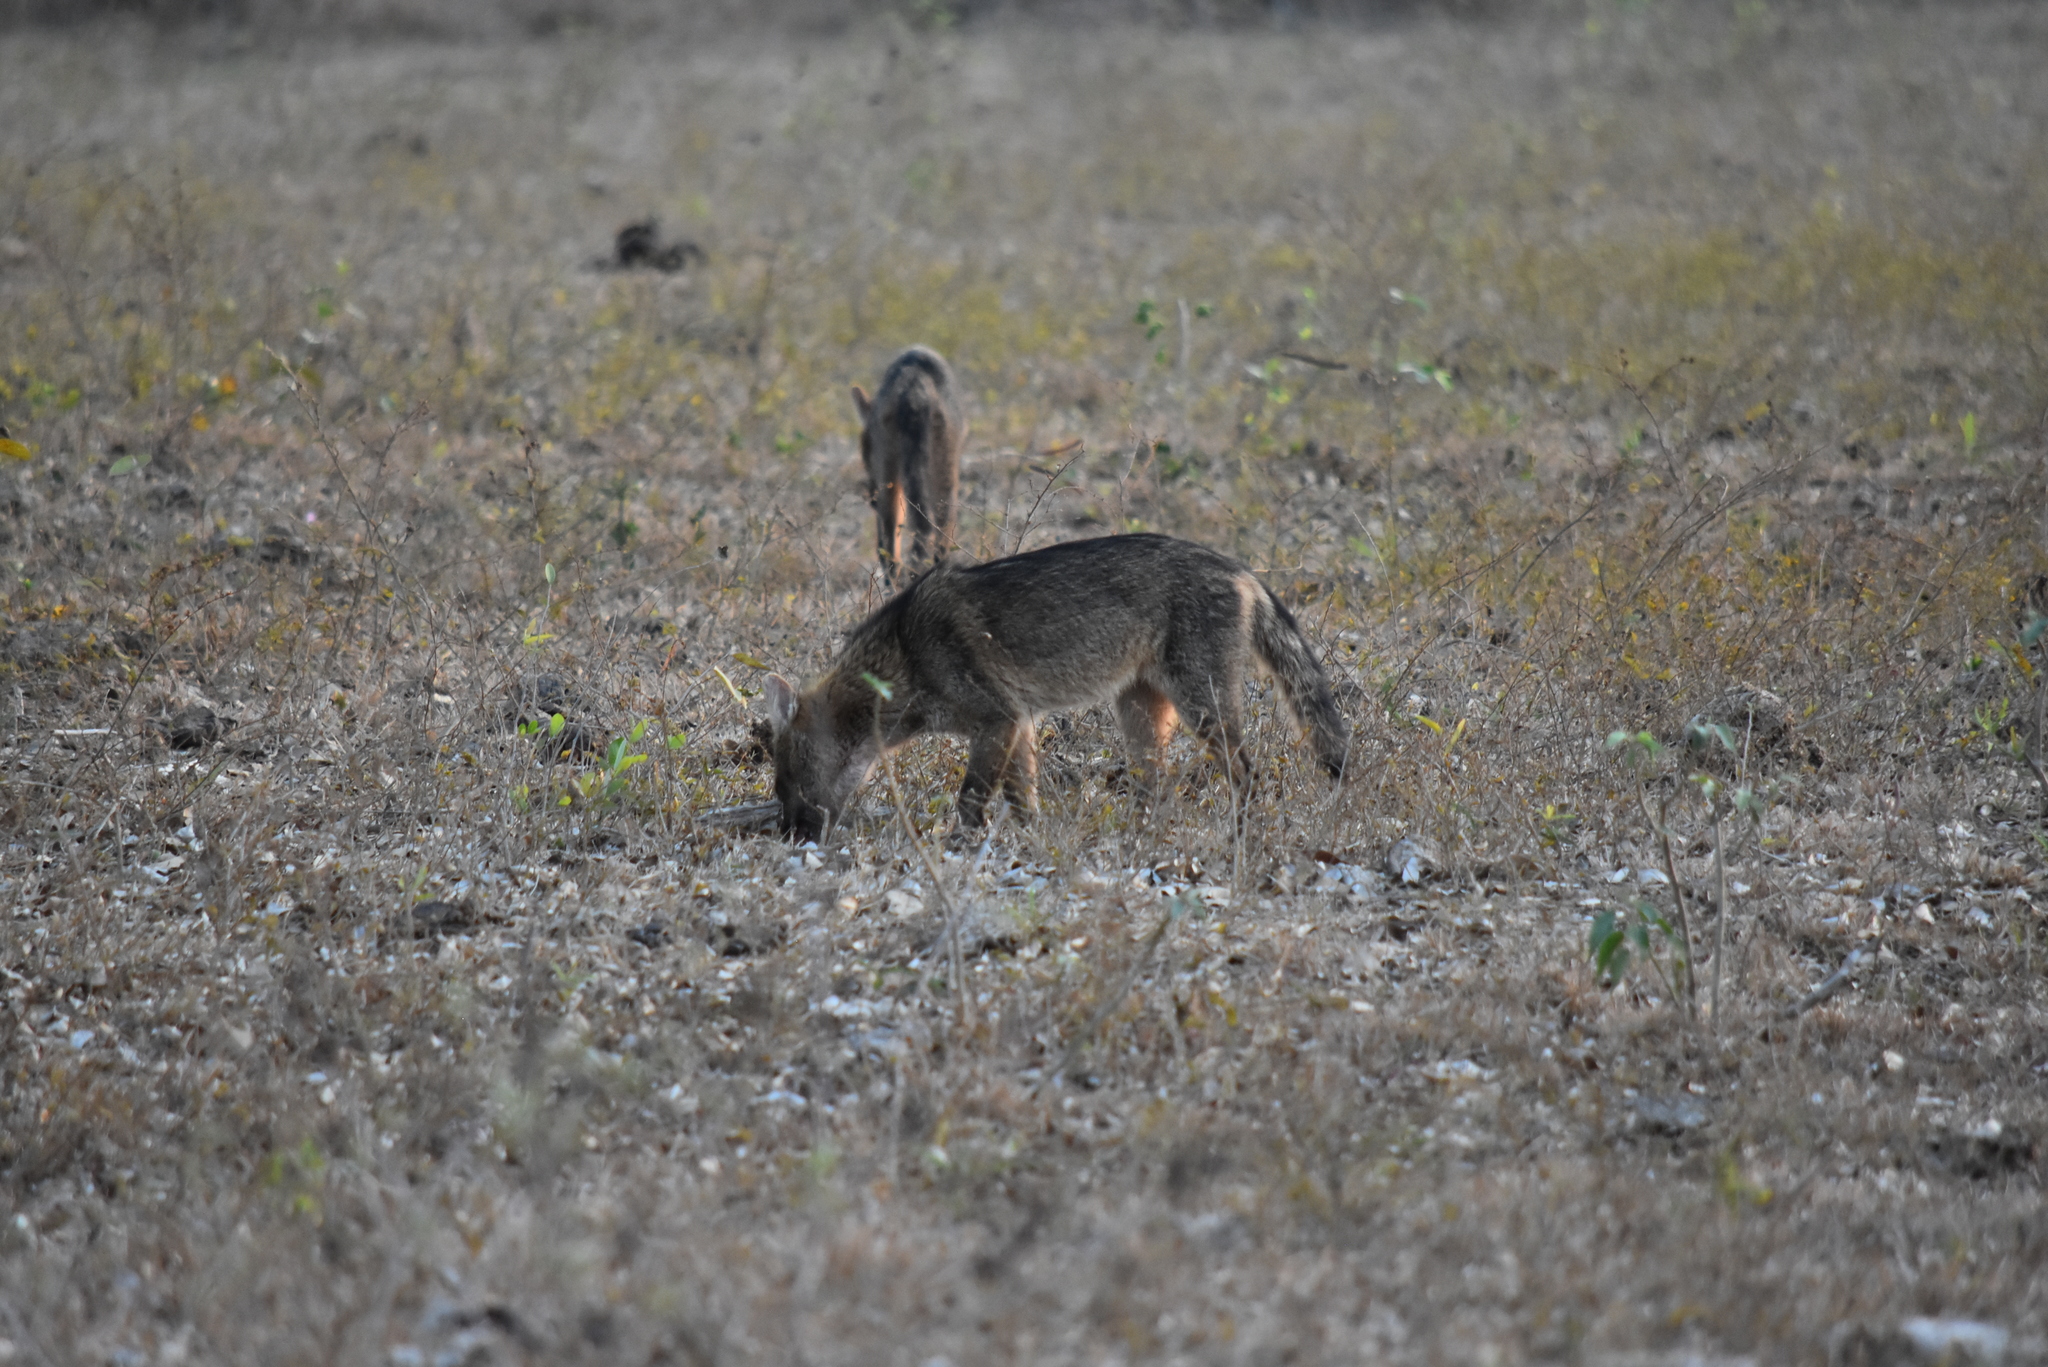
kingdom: Animalia
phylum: Chordata
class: Mammalia
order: Carnivora
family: Canidae
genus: Cerdocyon
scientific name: Cerdocyon thous
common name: Crab-eating fox
